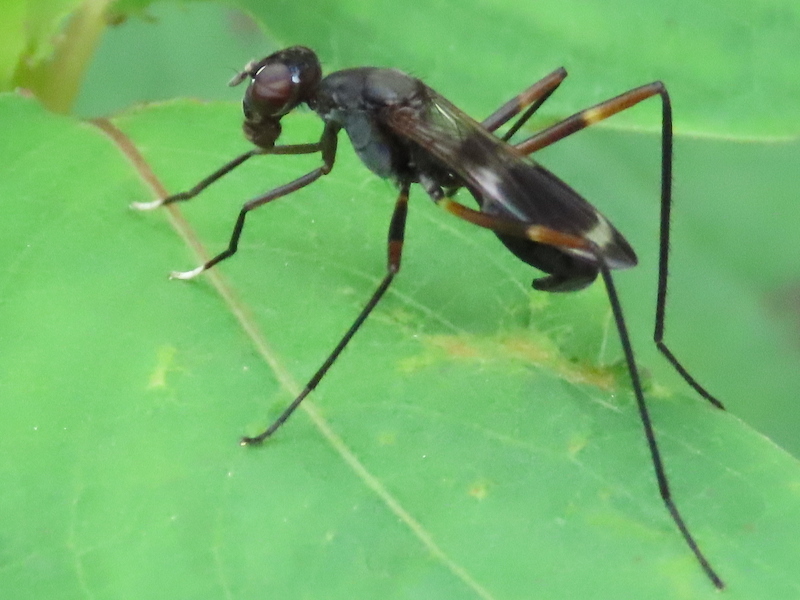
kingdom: Animalia
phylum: Arthropoda
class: Insecta
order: Diptera
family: Micropezidae
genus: Taeniaptera
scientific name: Taeniaptera trivittata
